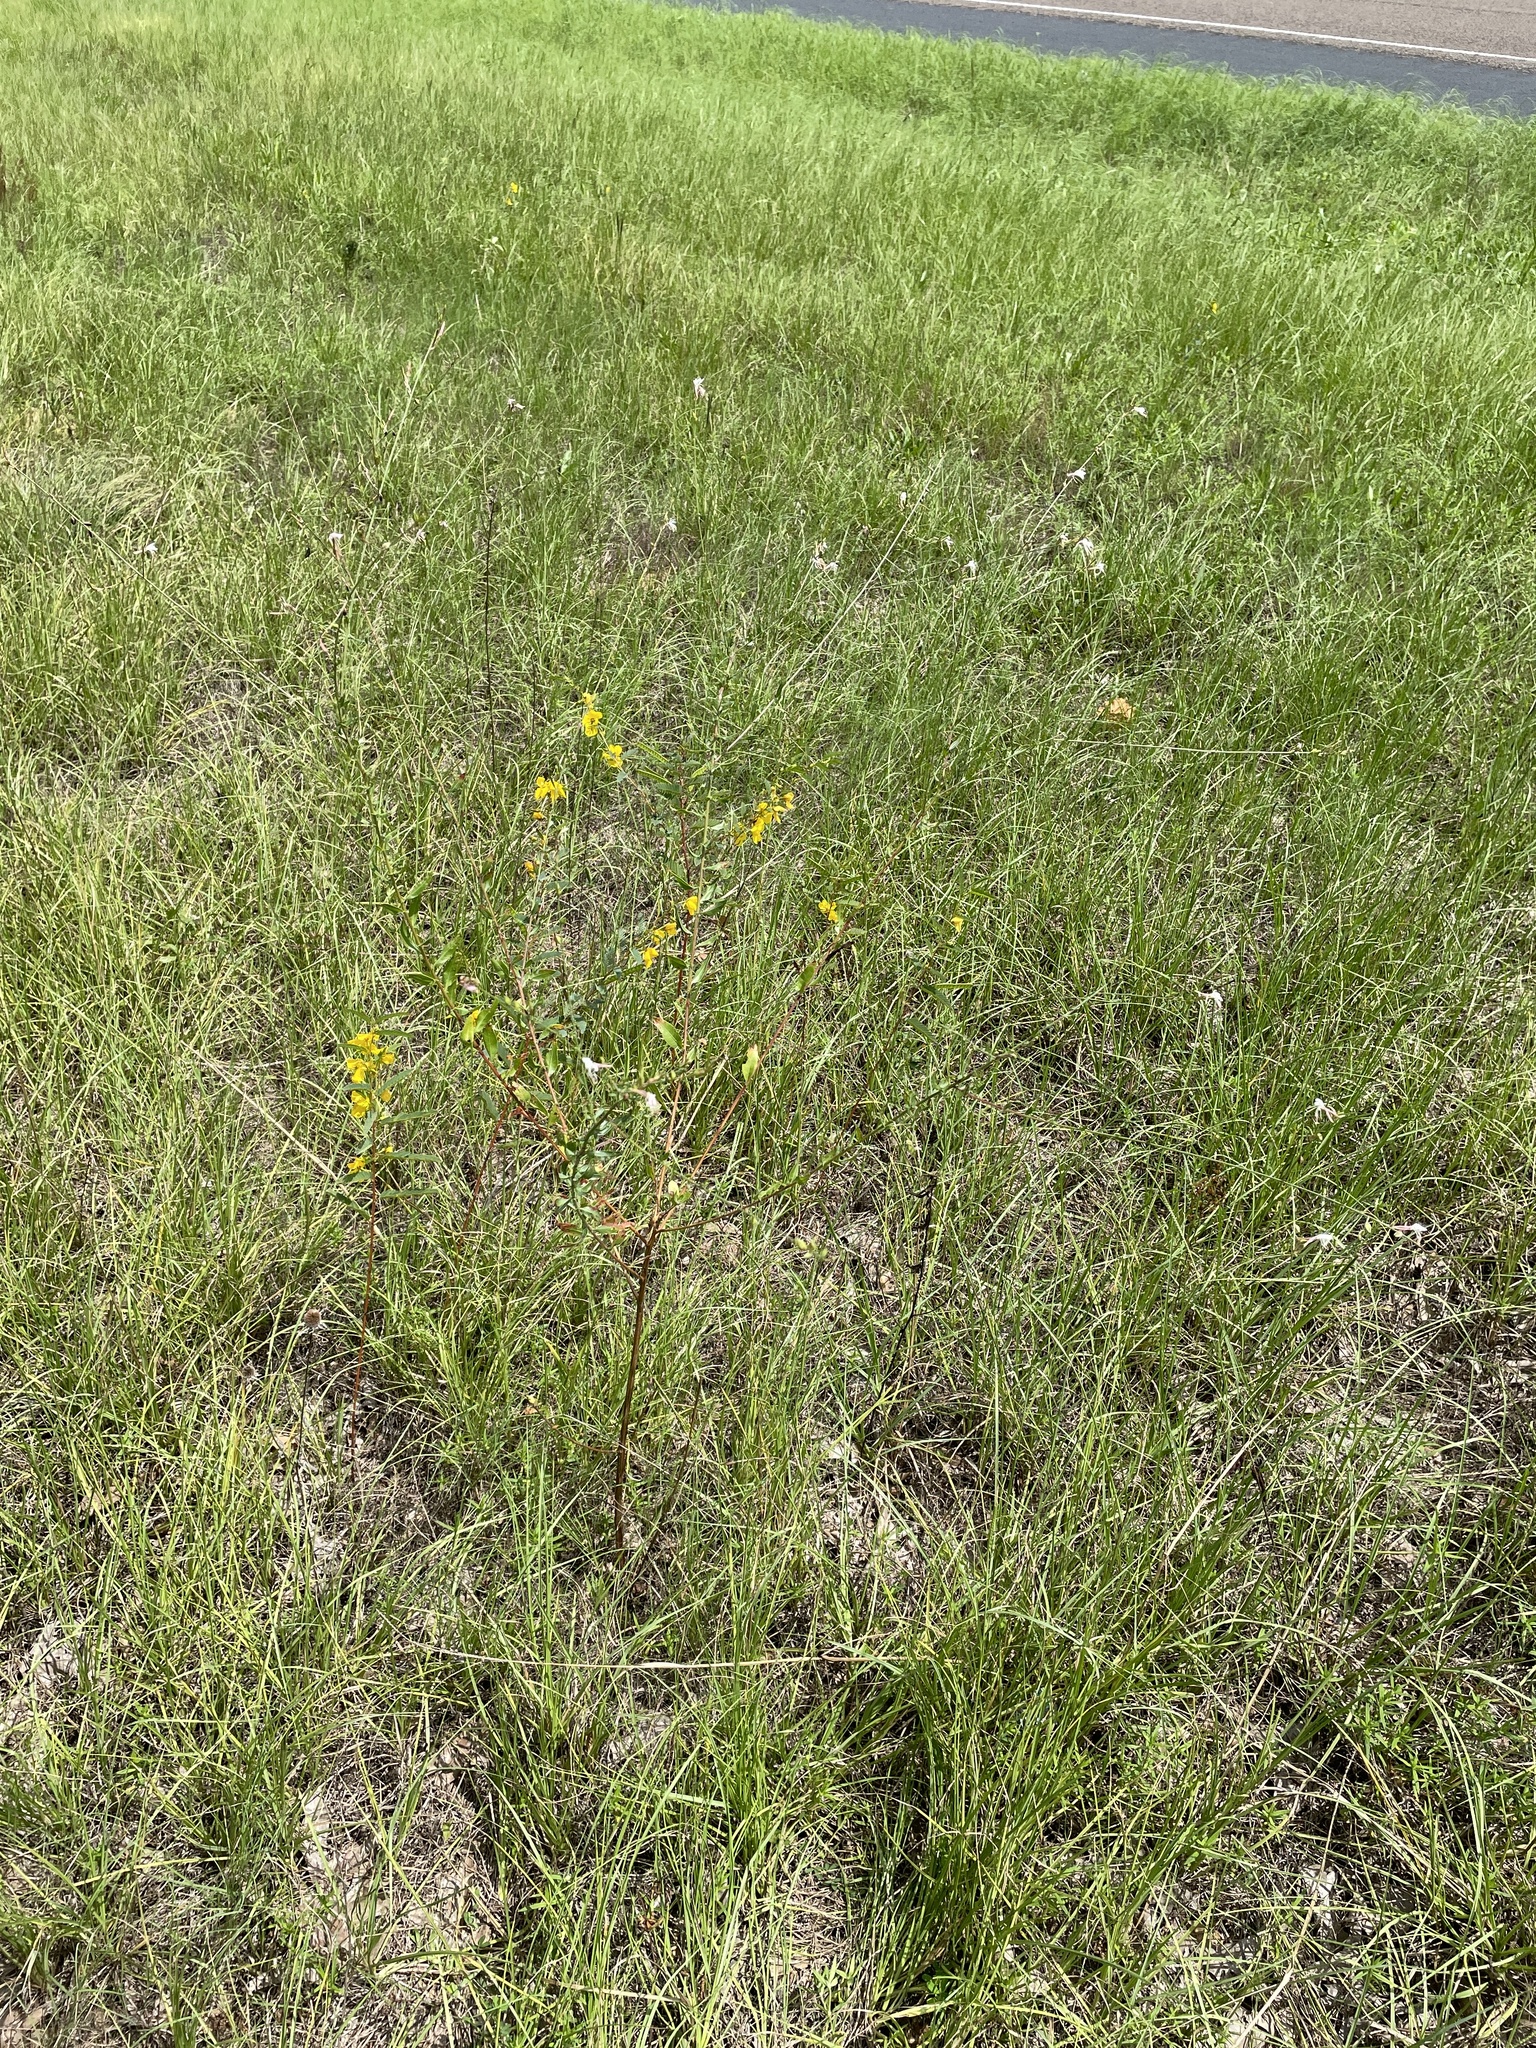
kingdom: Plantae
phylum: Tracheophyta
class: Magnoliopsida
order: Myrtales
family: Onagraceae
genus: Oenothera
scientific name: Oenothera lindheimeri
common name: Lindheimer's beeblossom
